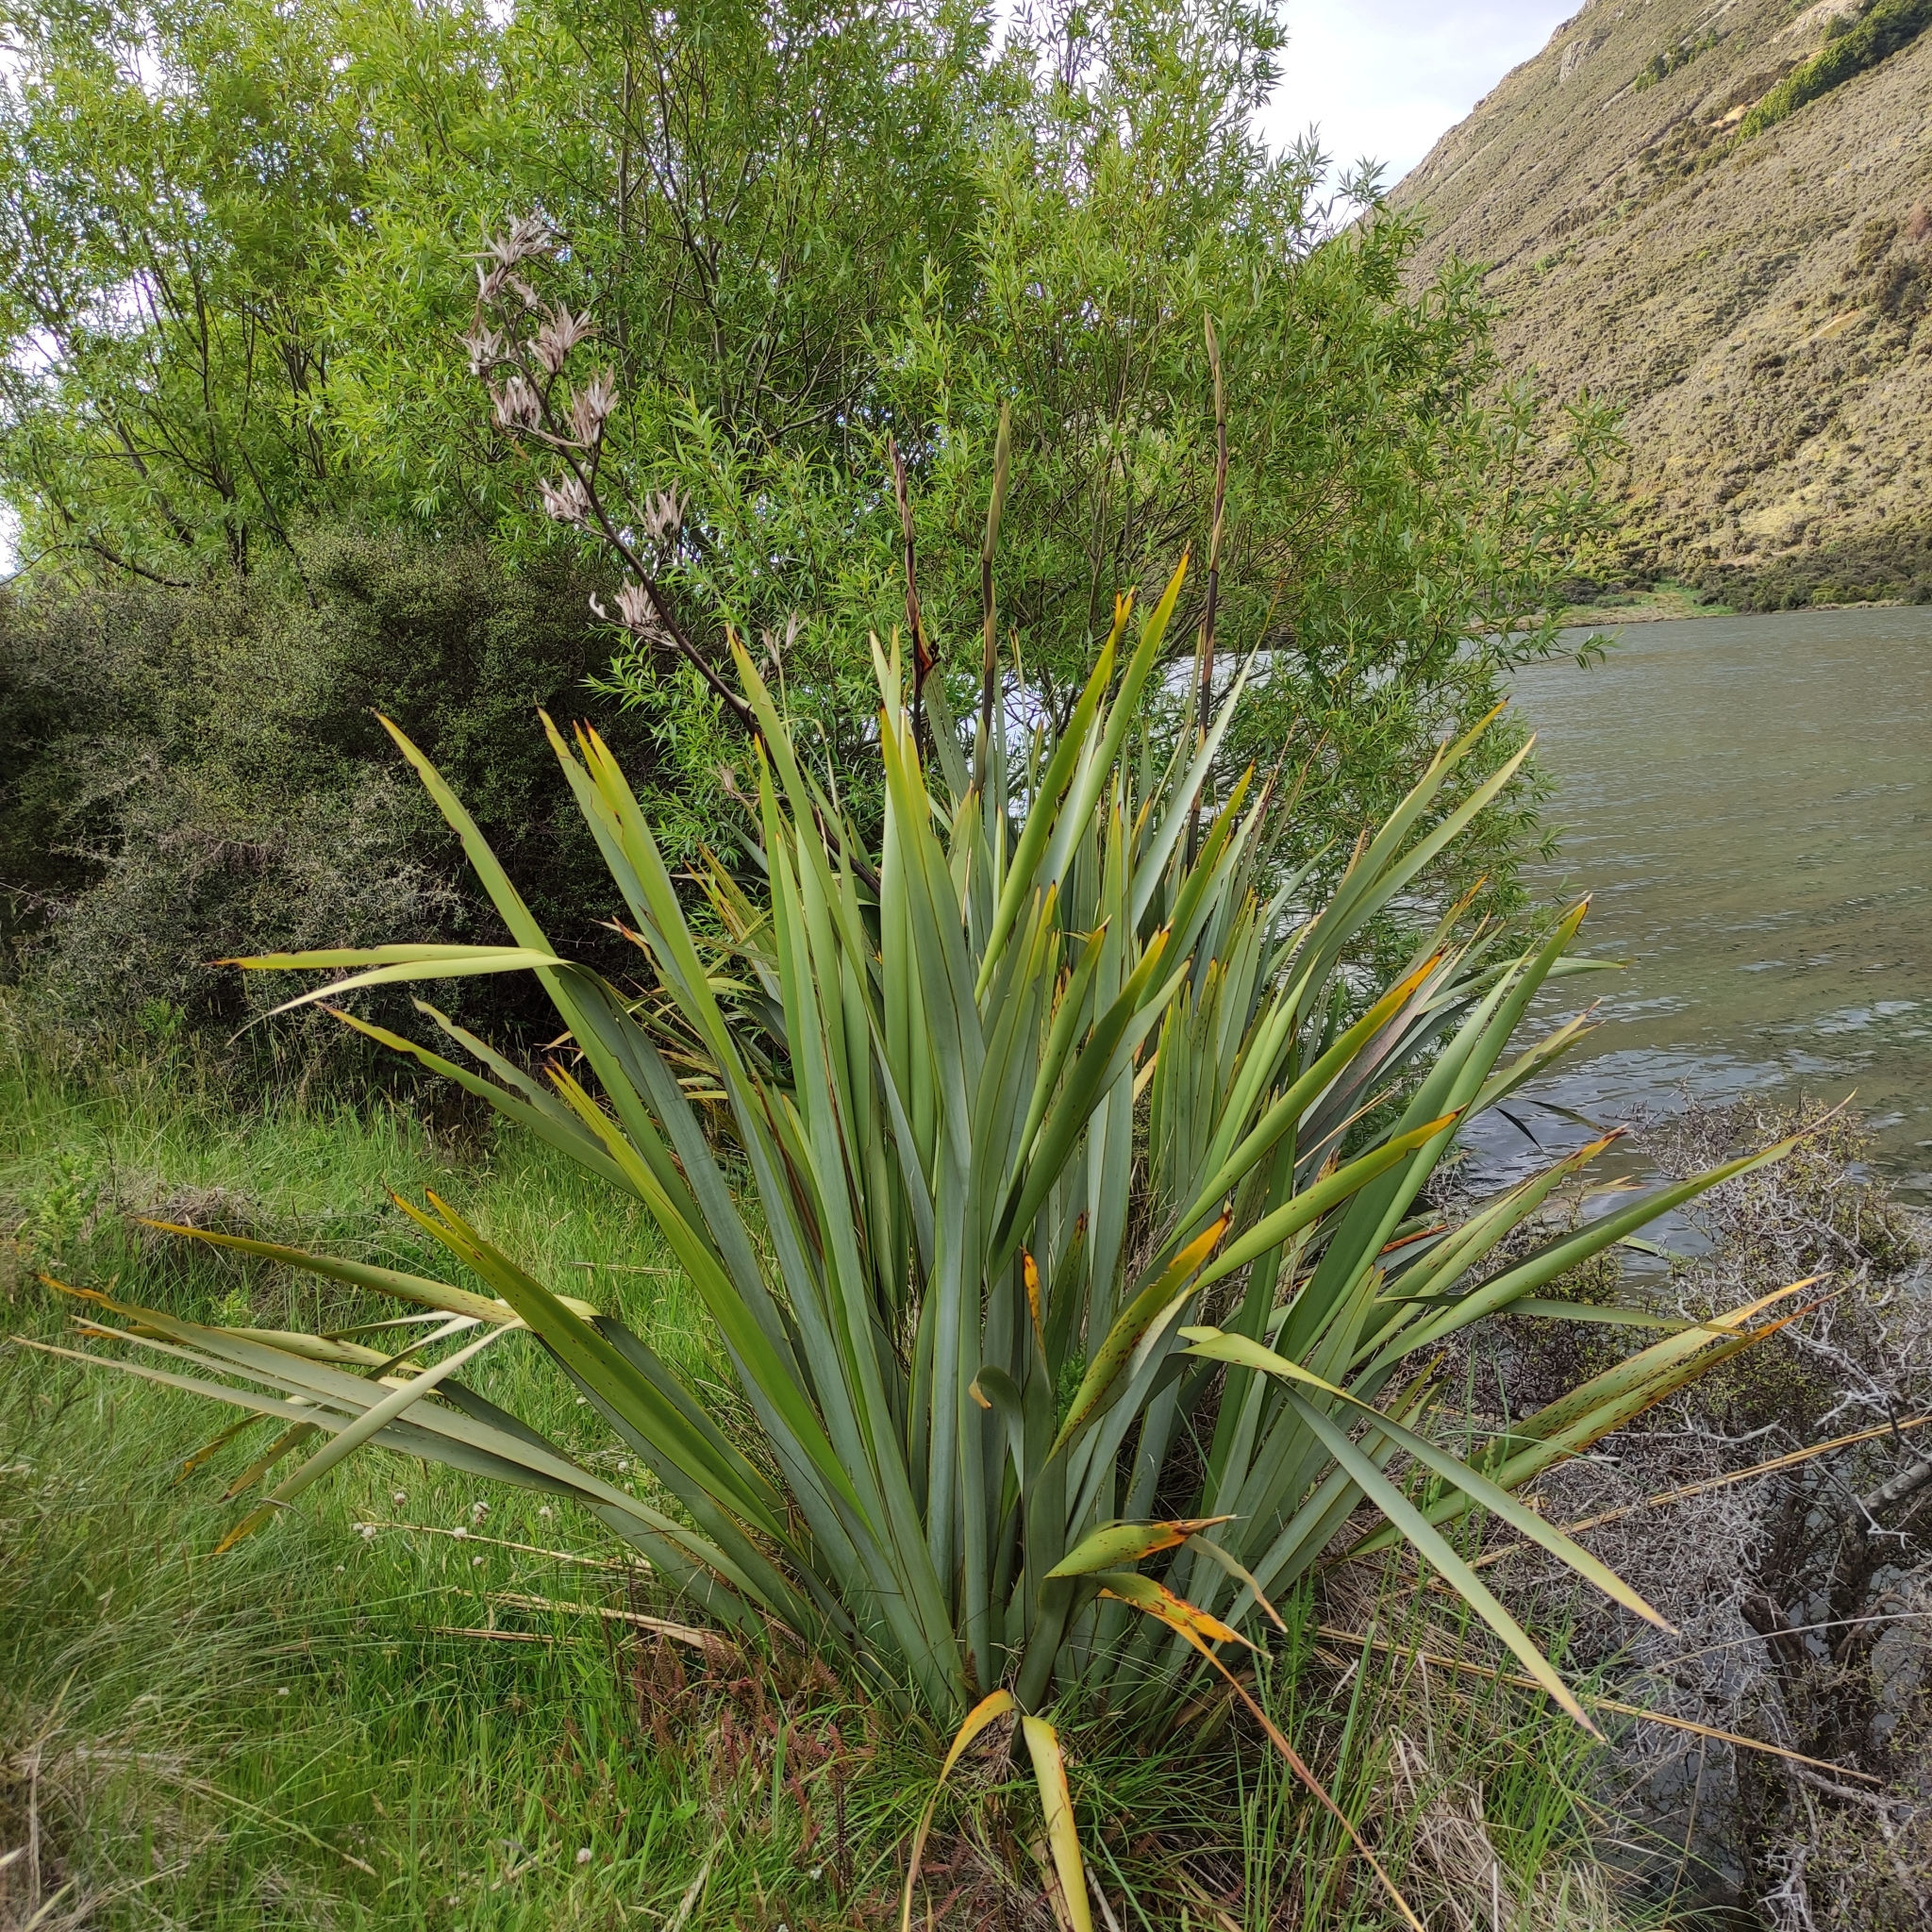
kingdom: Plantae
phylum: Tracheophyta
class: Liliopsida
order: Asparagales
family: Asphodelaceae
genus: Phormium
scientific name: Phormium tenax
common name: New zealand flax
